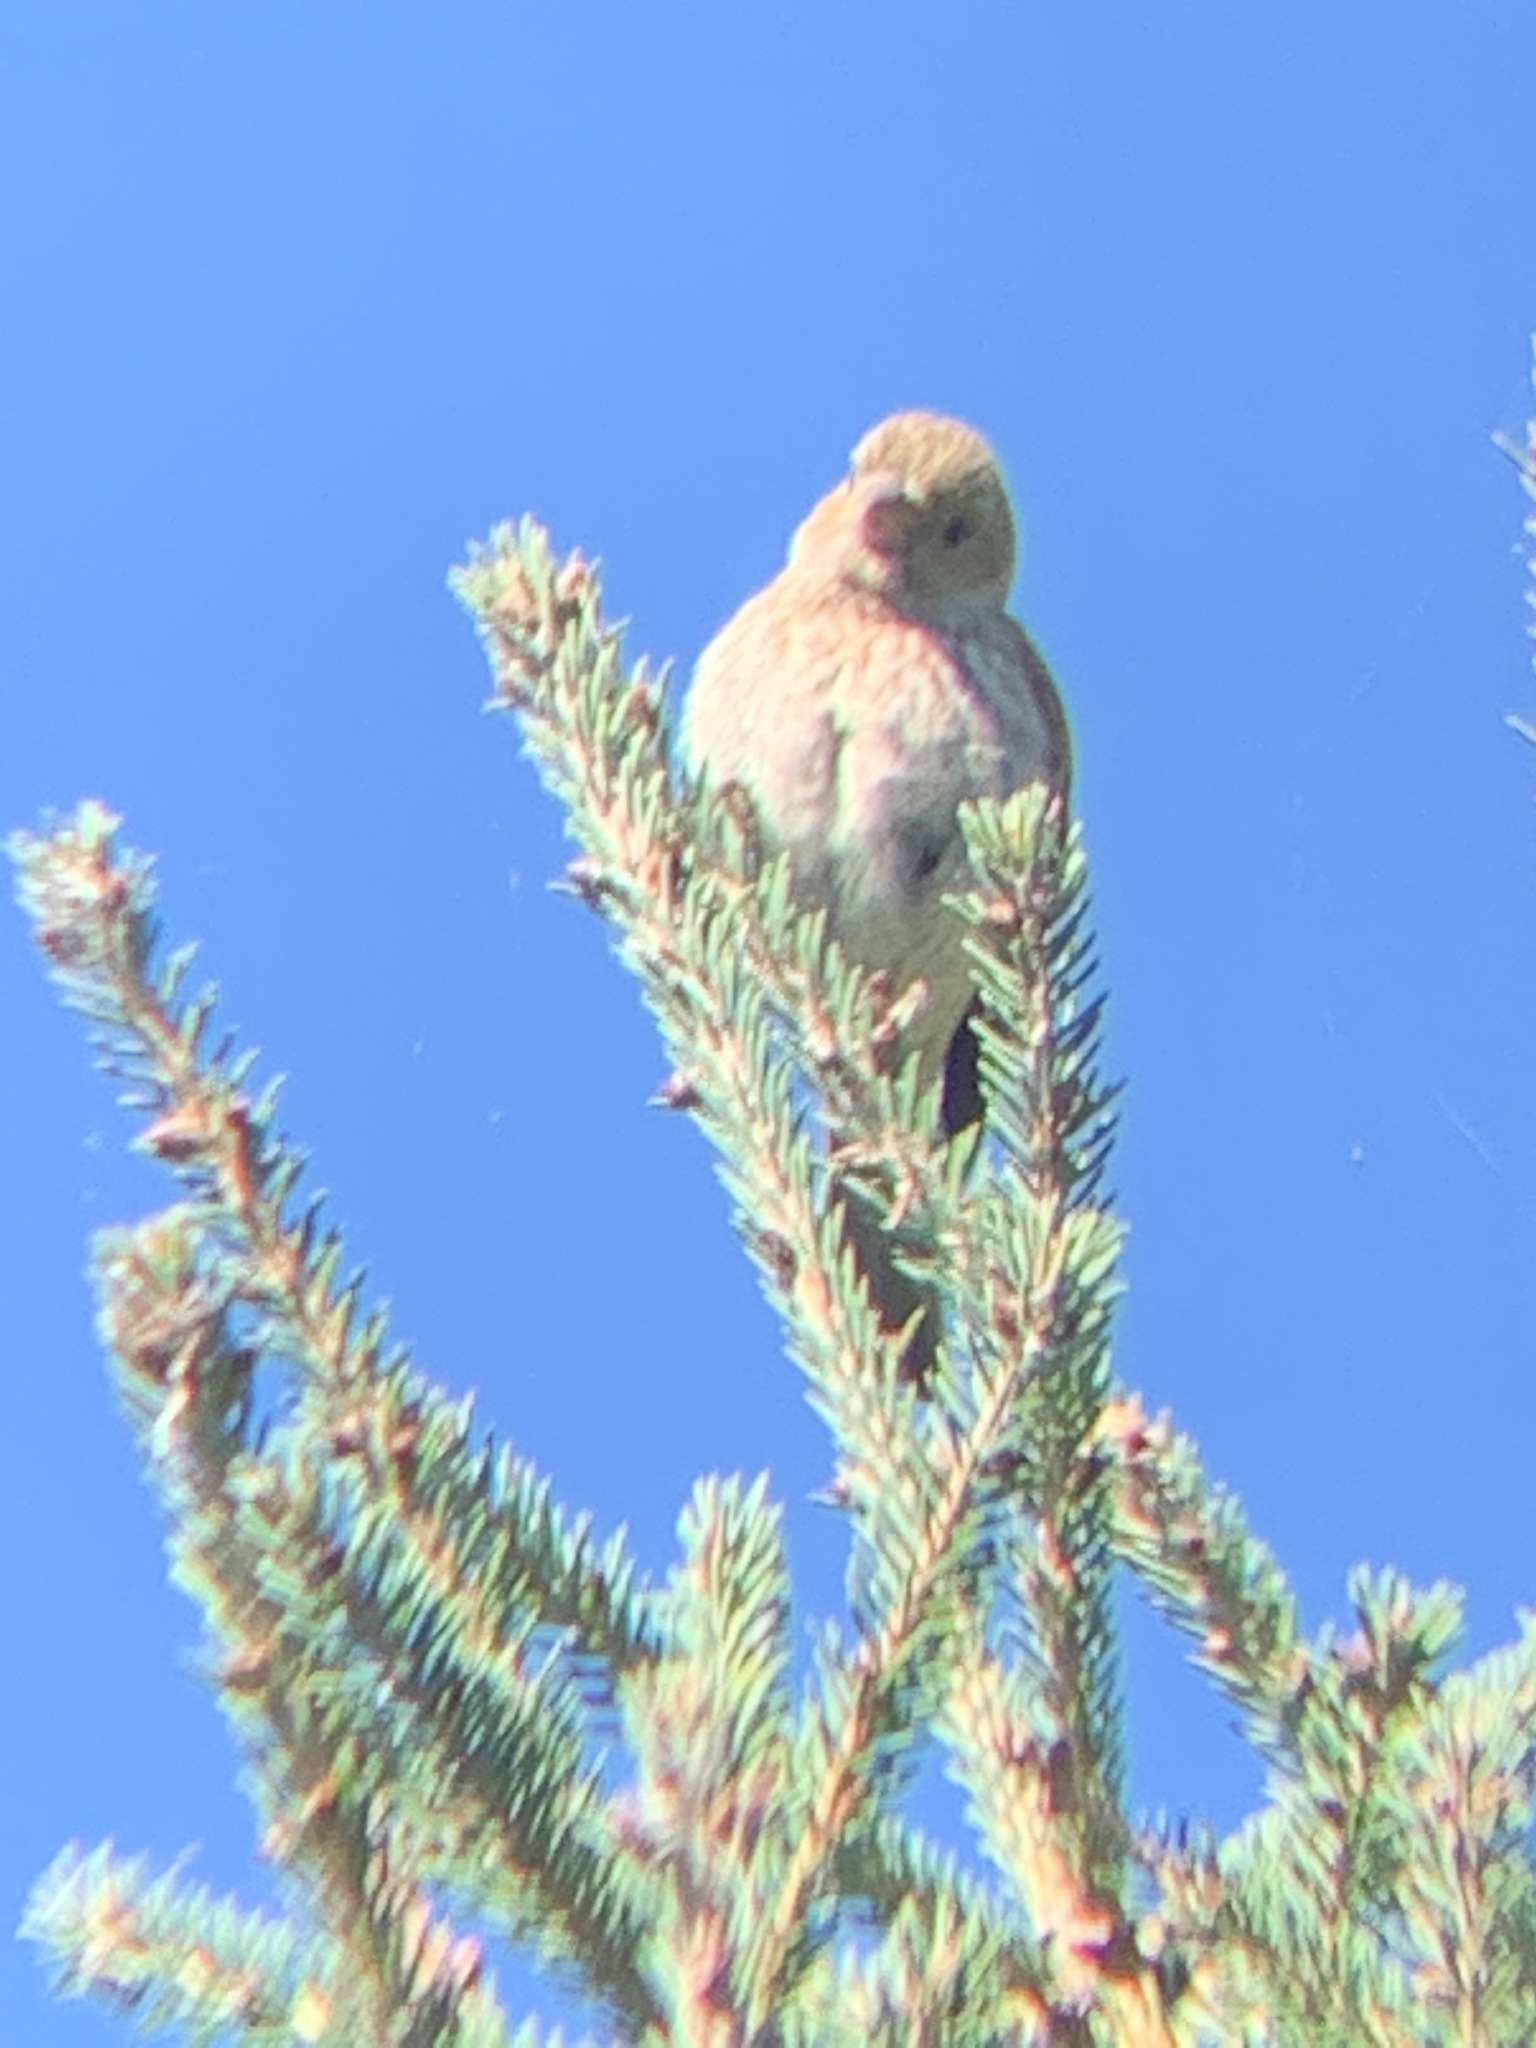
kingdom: Animalia
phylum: Chordata
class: Aves
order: Passeriformes
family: Fringillidae
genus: Haemorhous
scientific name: Haemorhous mexicanus
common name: House finch
